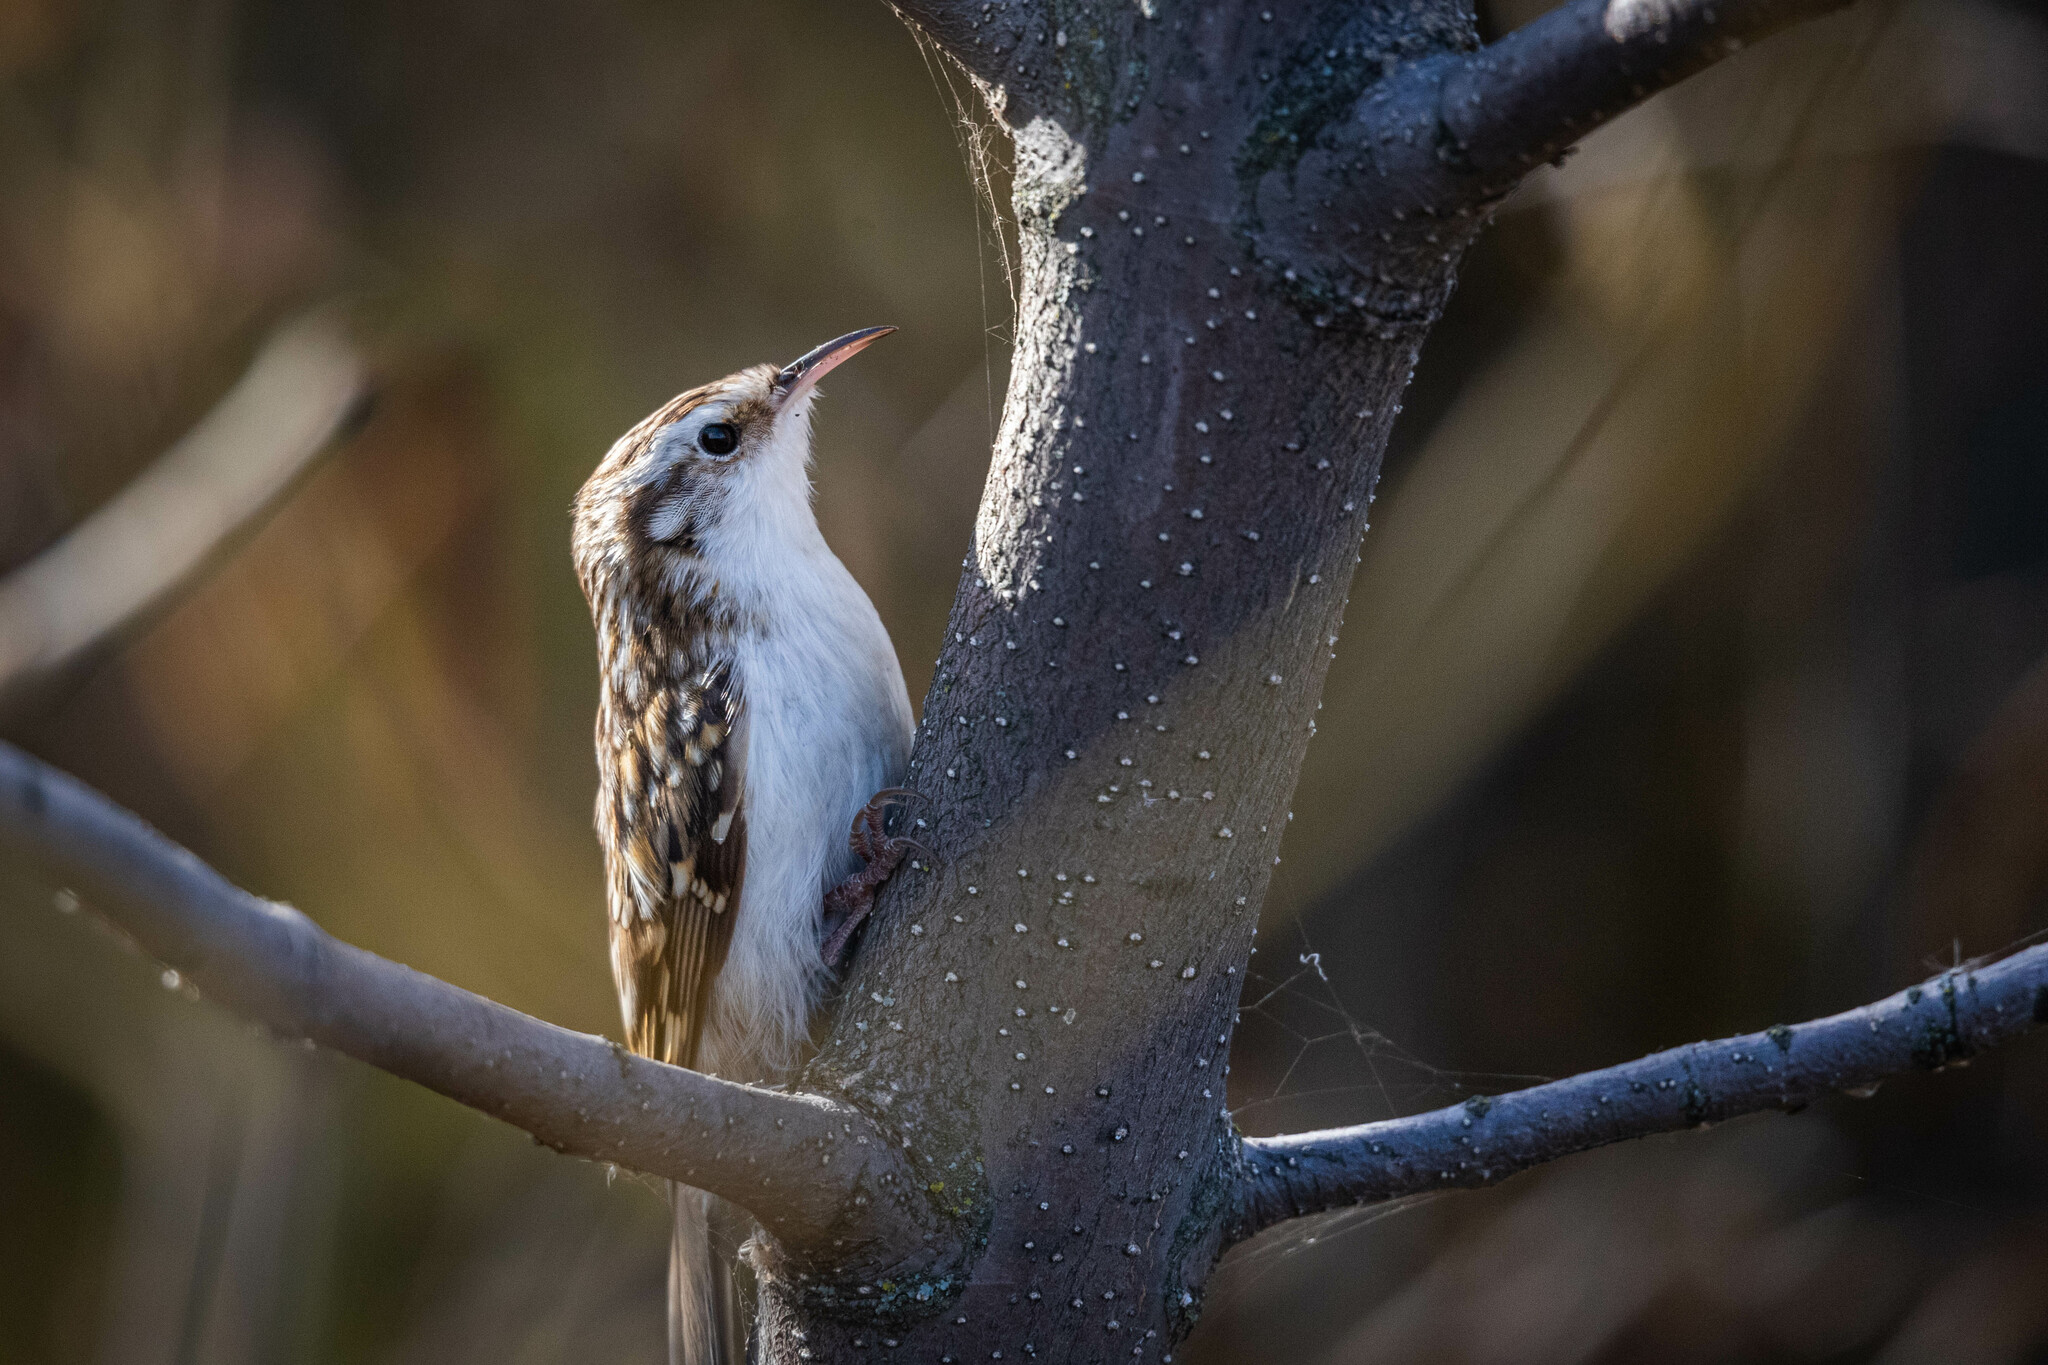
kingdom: Animalia
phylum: Chordata
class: Aves
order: Passeriformes
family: Certhiidae
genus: Certhia
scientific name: Certhia familiaris
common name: Eurasian treecreeper
